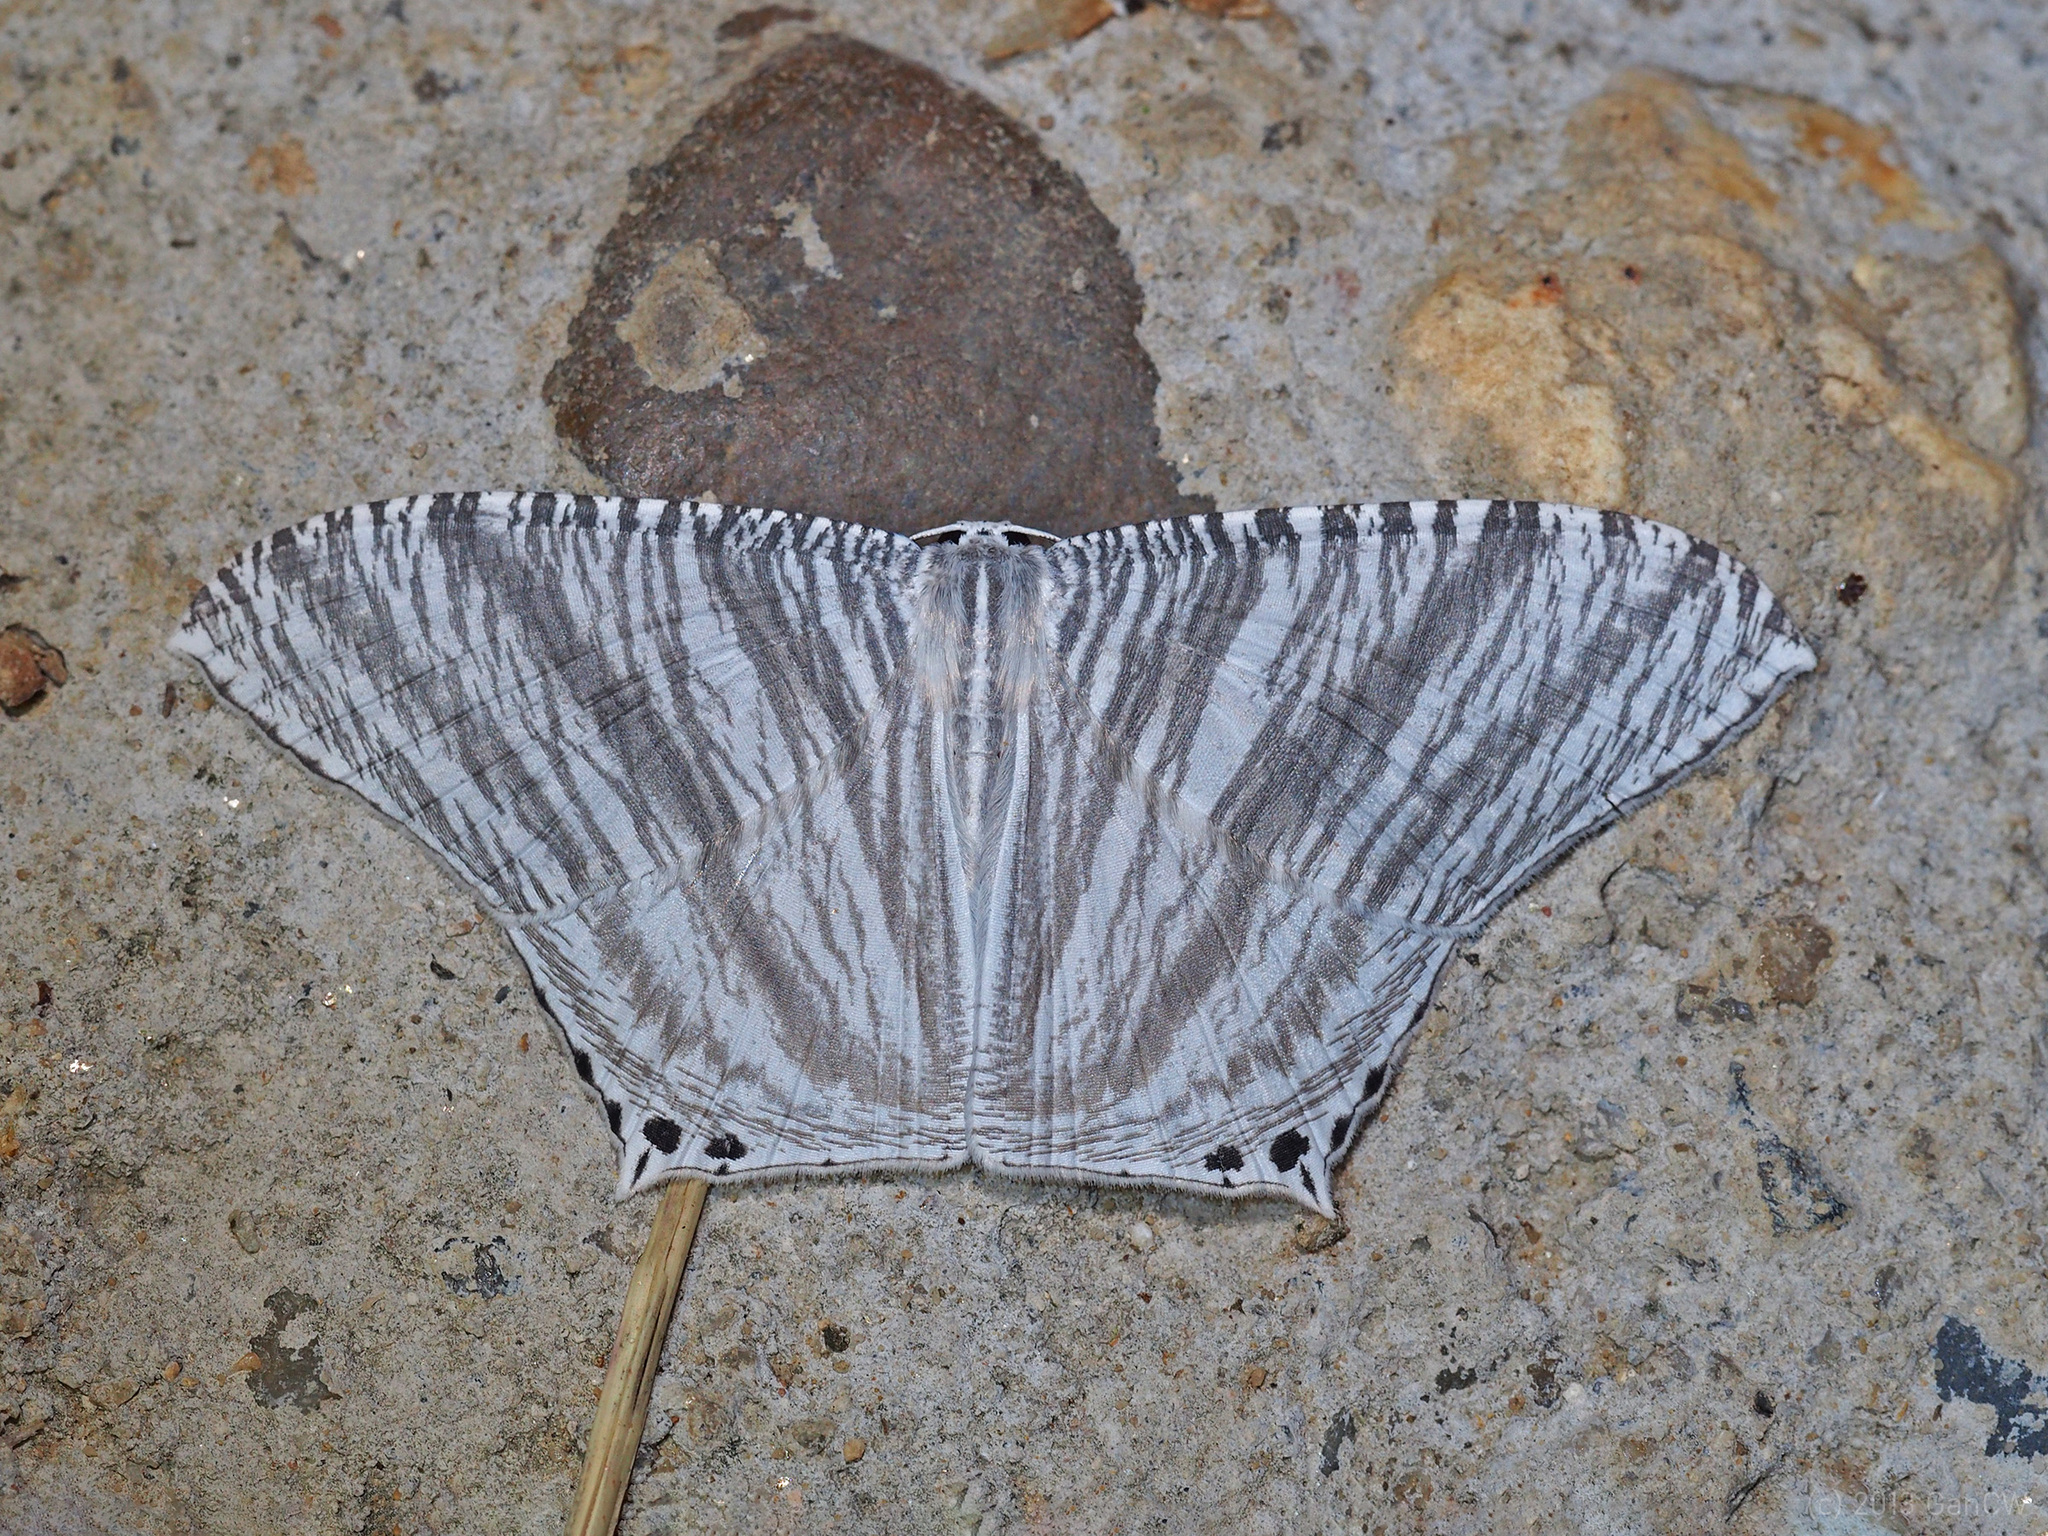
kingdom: Animalia
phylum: Arthropoda
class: Insecta
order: Lepidoptera
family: Uraniidae
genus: Micronia
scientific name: Micronia pluviosa
